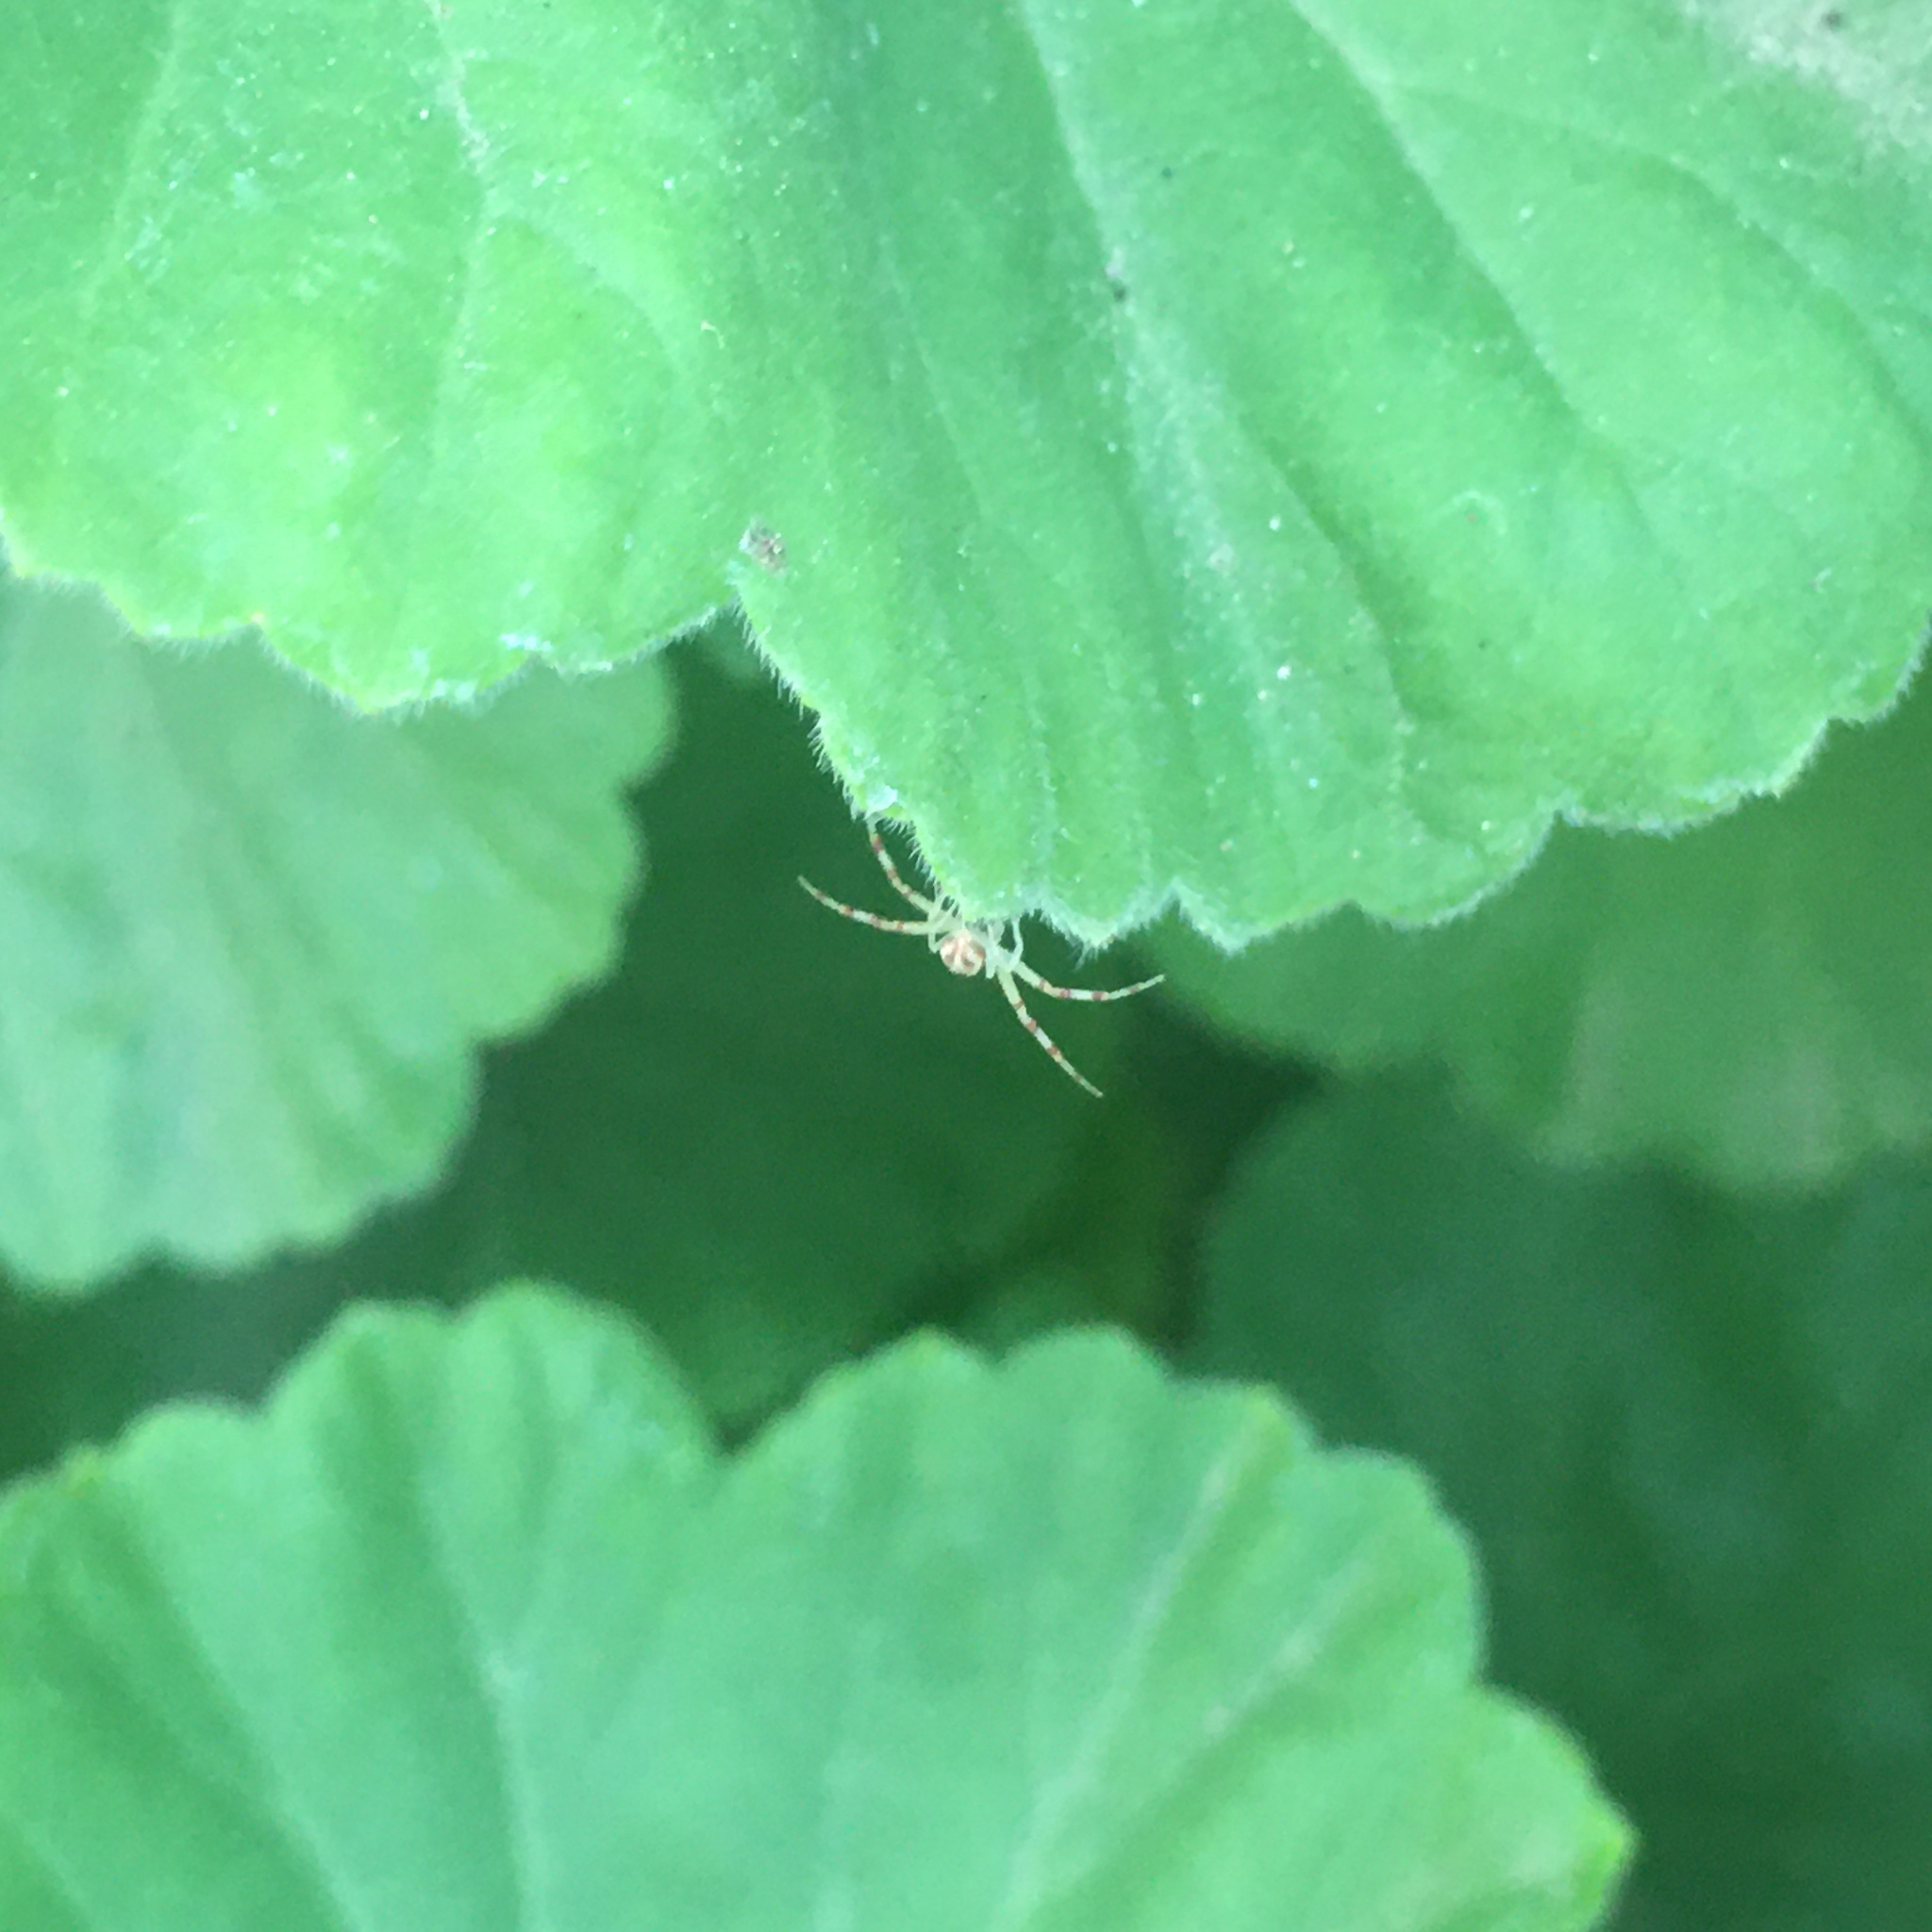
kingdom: Animalia
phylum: Arthropoda
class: Arachnida
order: Araneae
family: Thomisidae
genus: Misumenops
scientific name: Misumenops
